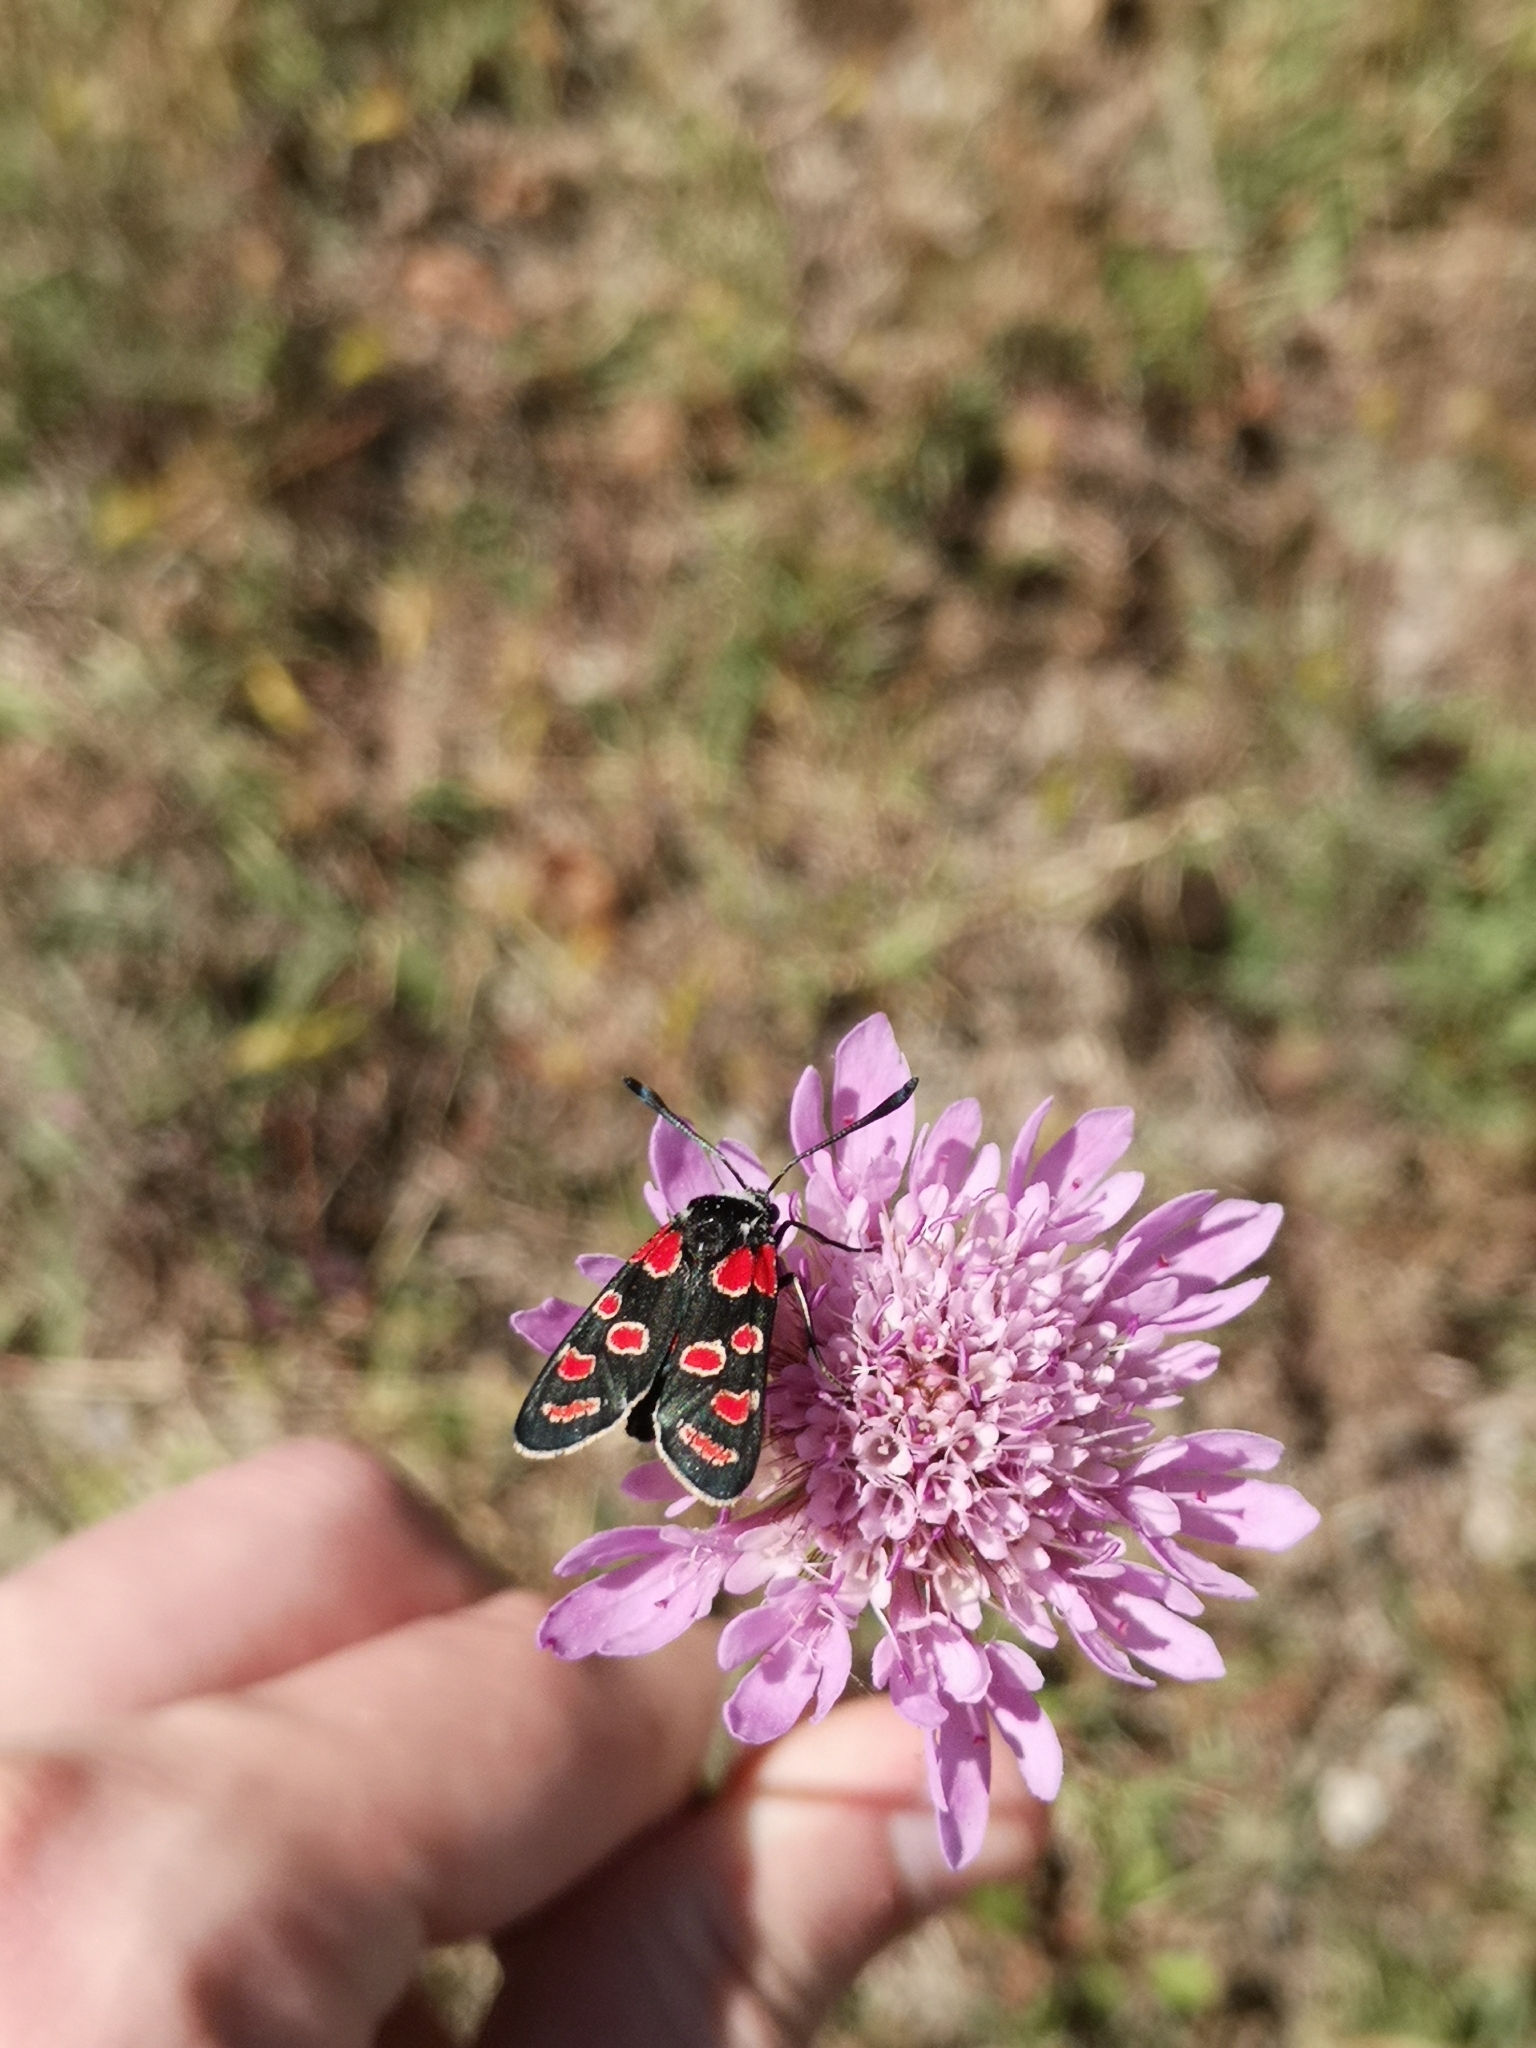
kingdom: Animalia
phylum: Arthropoda
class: Insecta
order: Lepidoptera
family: Zygaenidae
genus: Zygaena
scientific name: Zygaena carniolica
